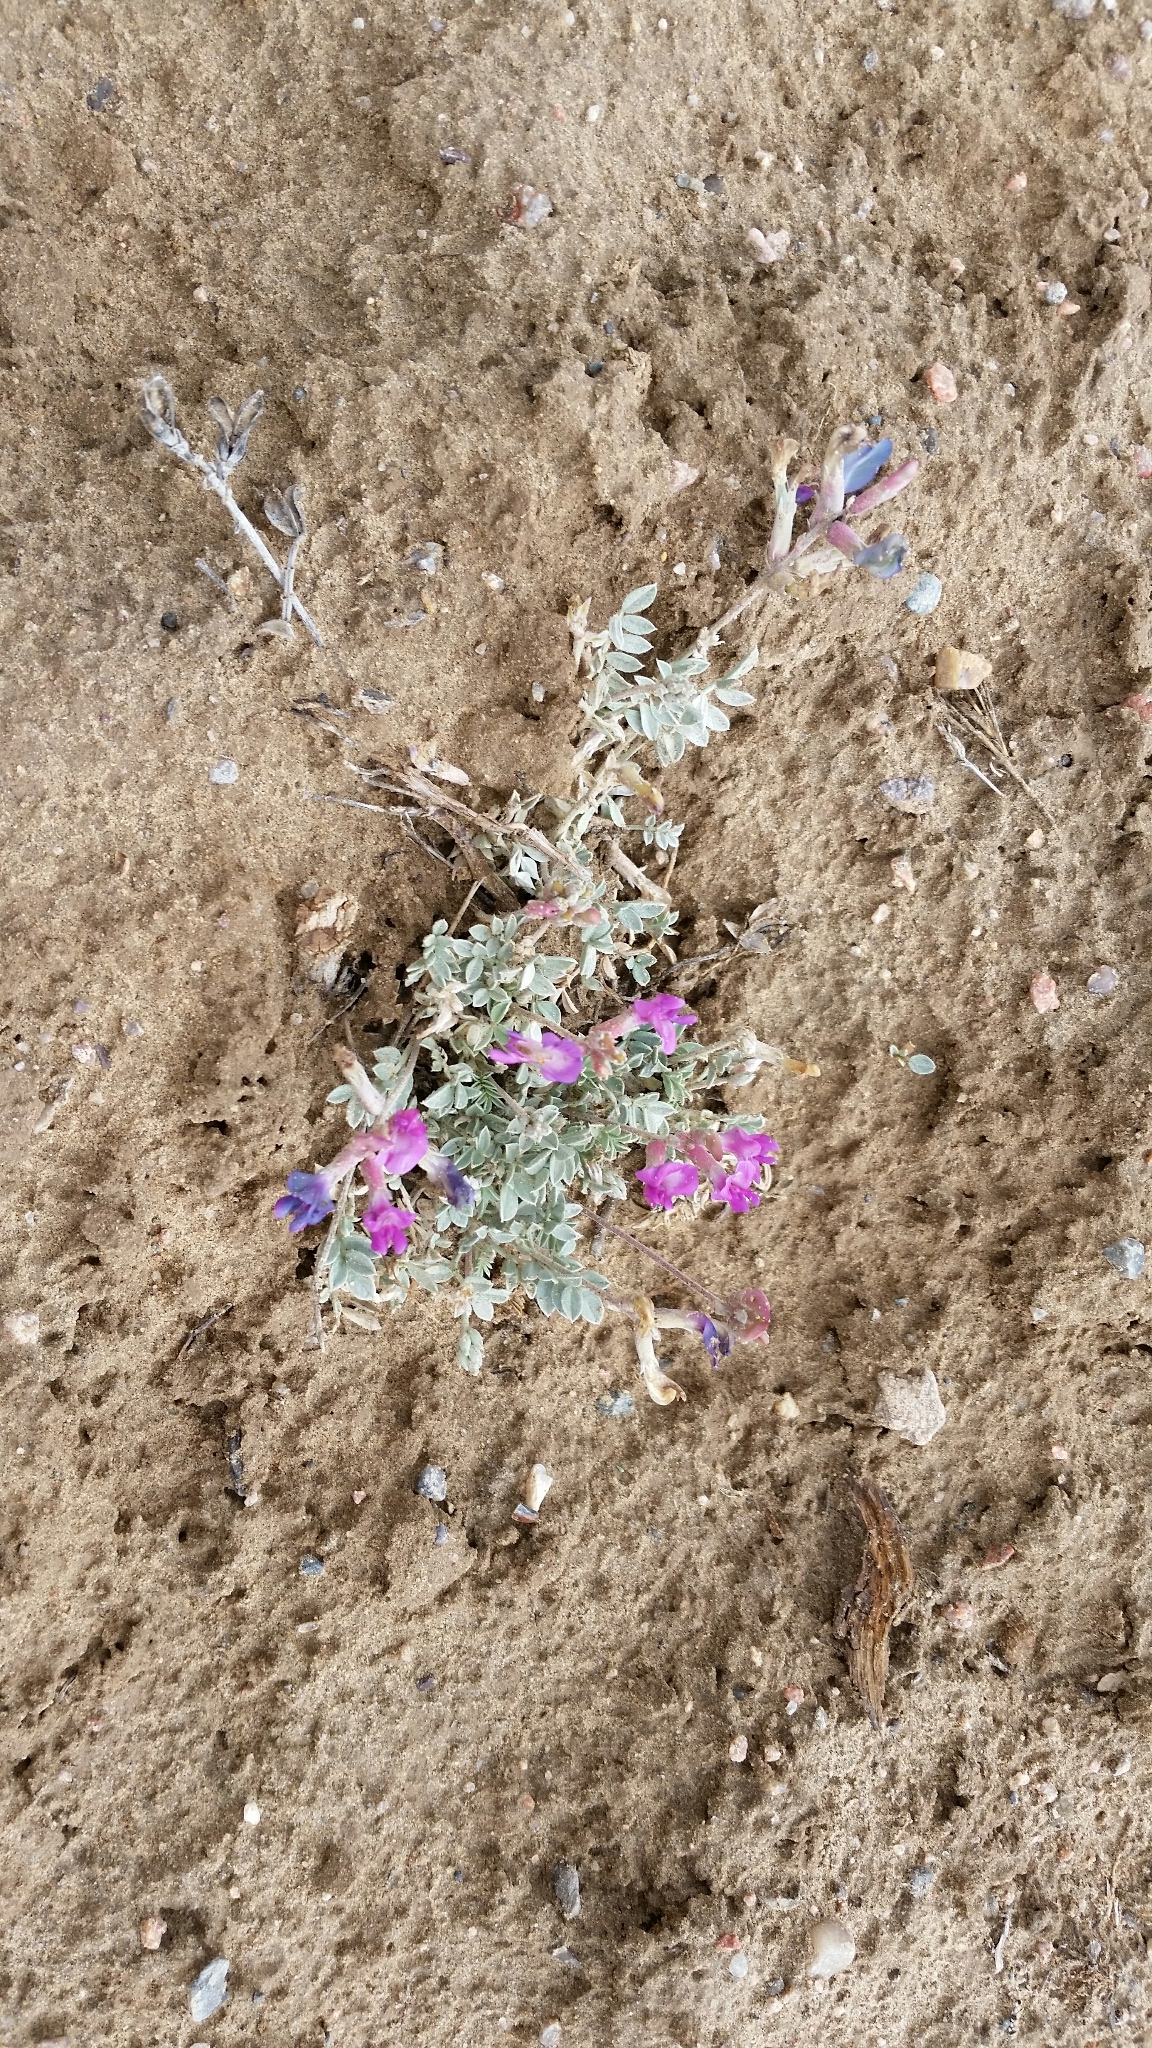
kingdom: Plantae
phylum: Tracheophyta
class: Magnoliopsida
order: Fabales
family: Fabaceae
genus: Astragalus
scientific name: Astragalus missouriensis
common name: Missouri milk-vetch
